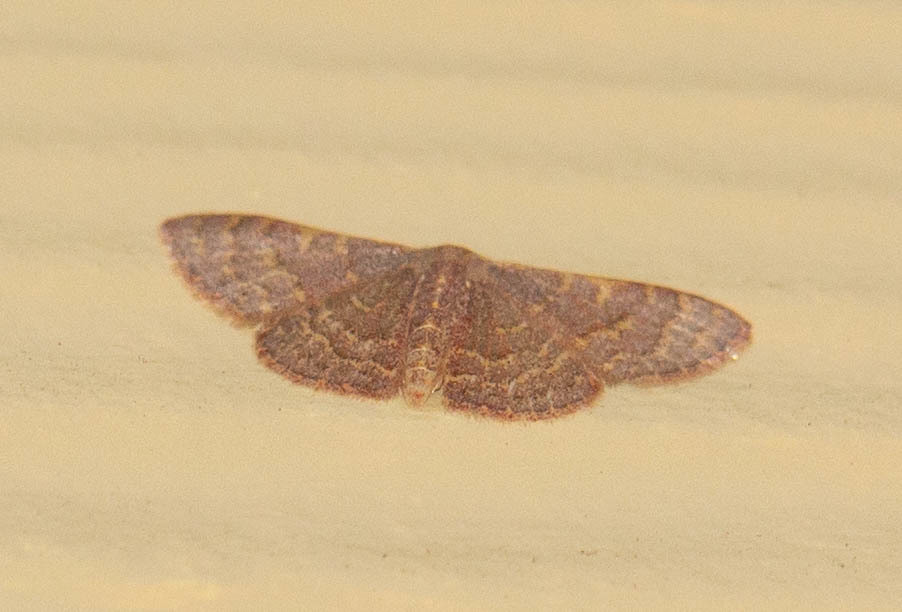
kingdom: Animalia
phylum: Arthropoda
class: Insecta
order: Lepidoptera
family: Geometridae
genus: Leptostales
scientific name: Leptostales pannaria
